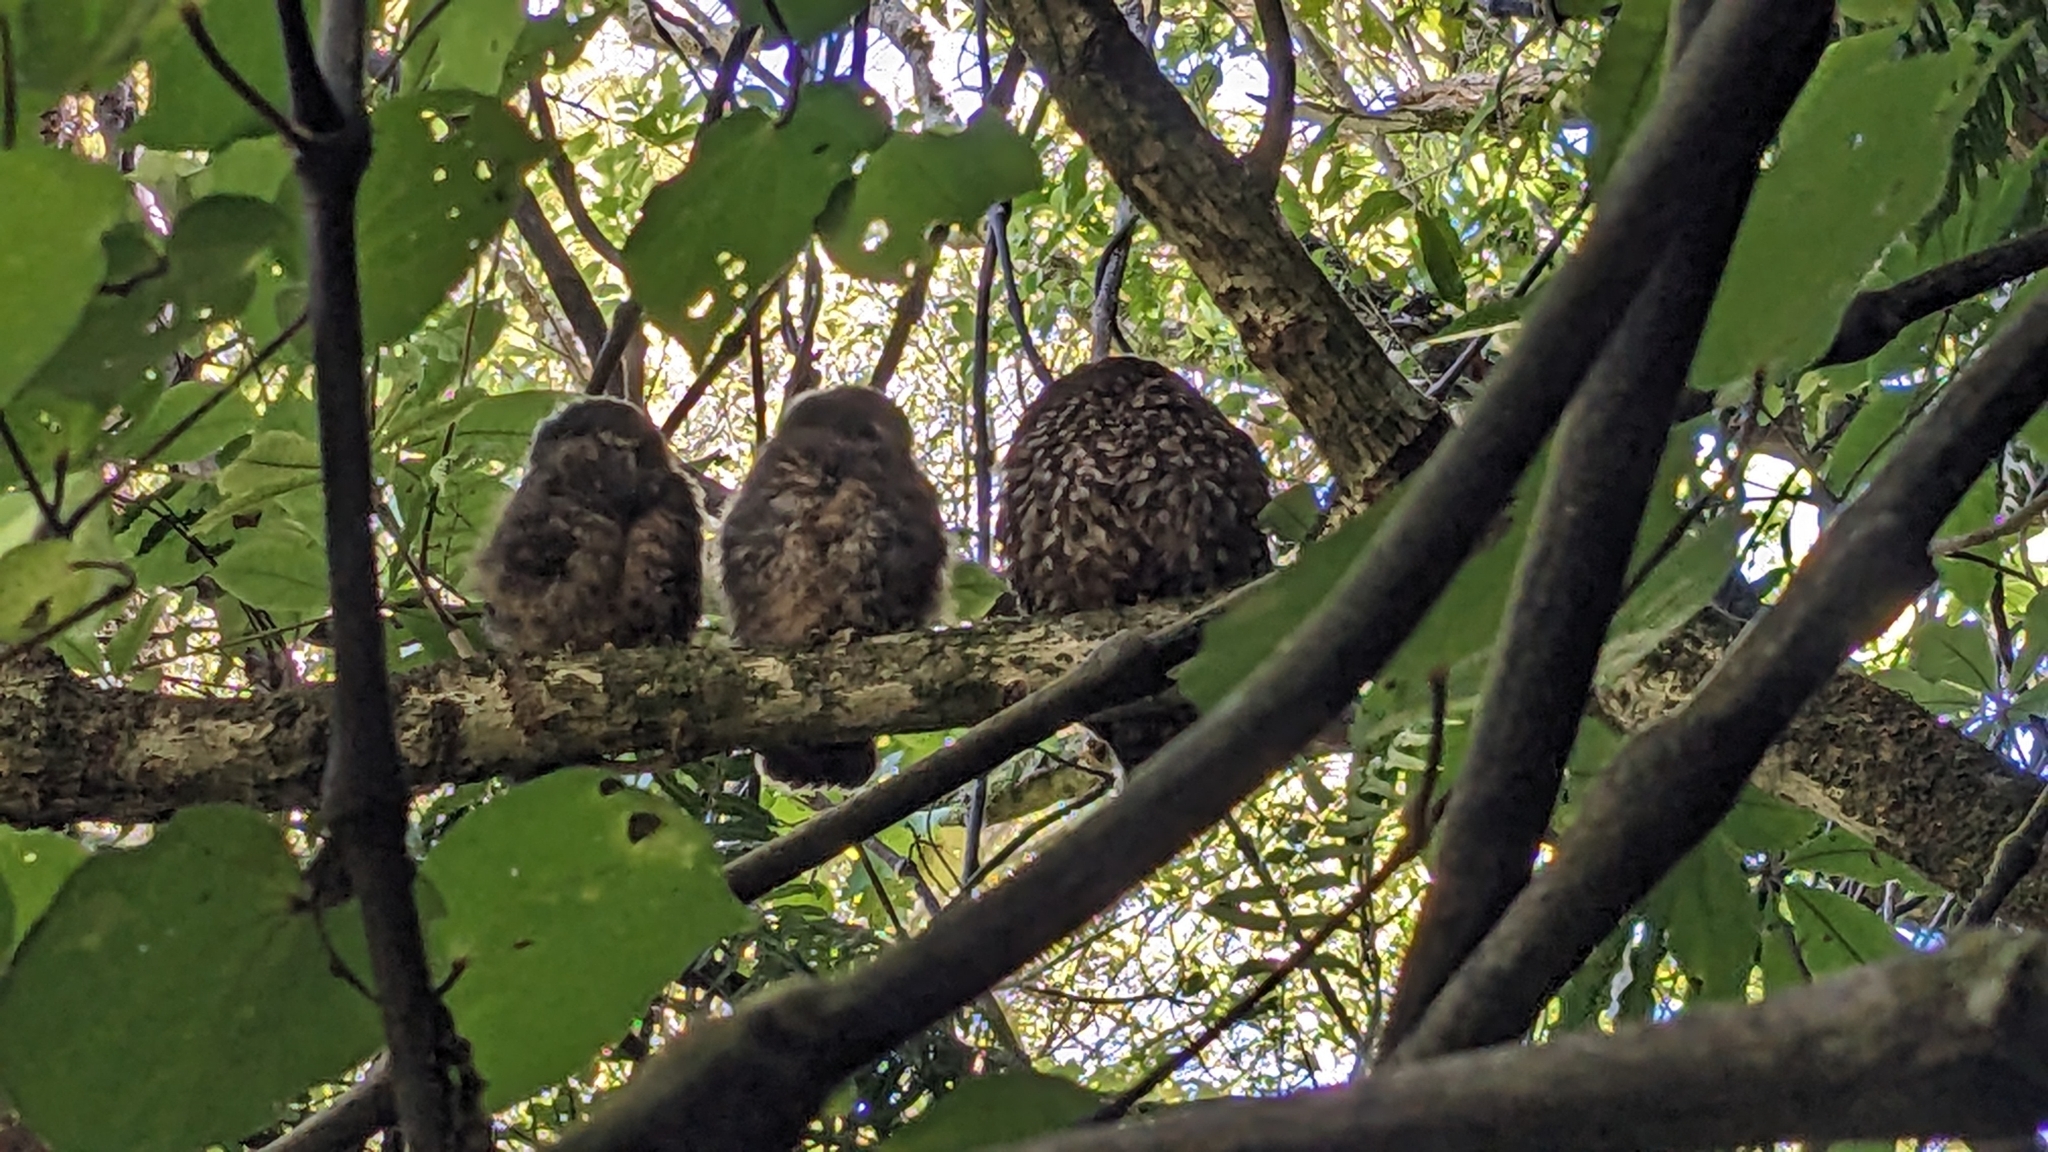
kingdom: Animalia
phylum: Chordata
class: Aves
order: Strigiformes
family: Strigidae
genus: Ninox
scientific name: Ninox novaeseelandiae
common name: Morepork
